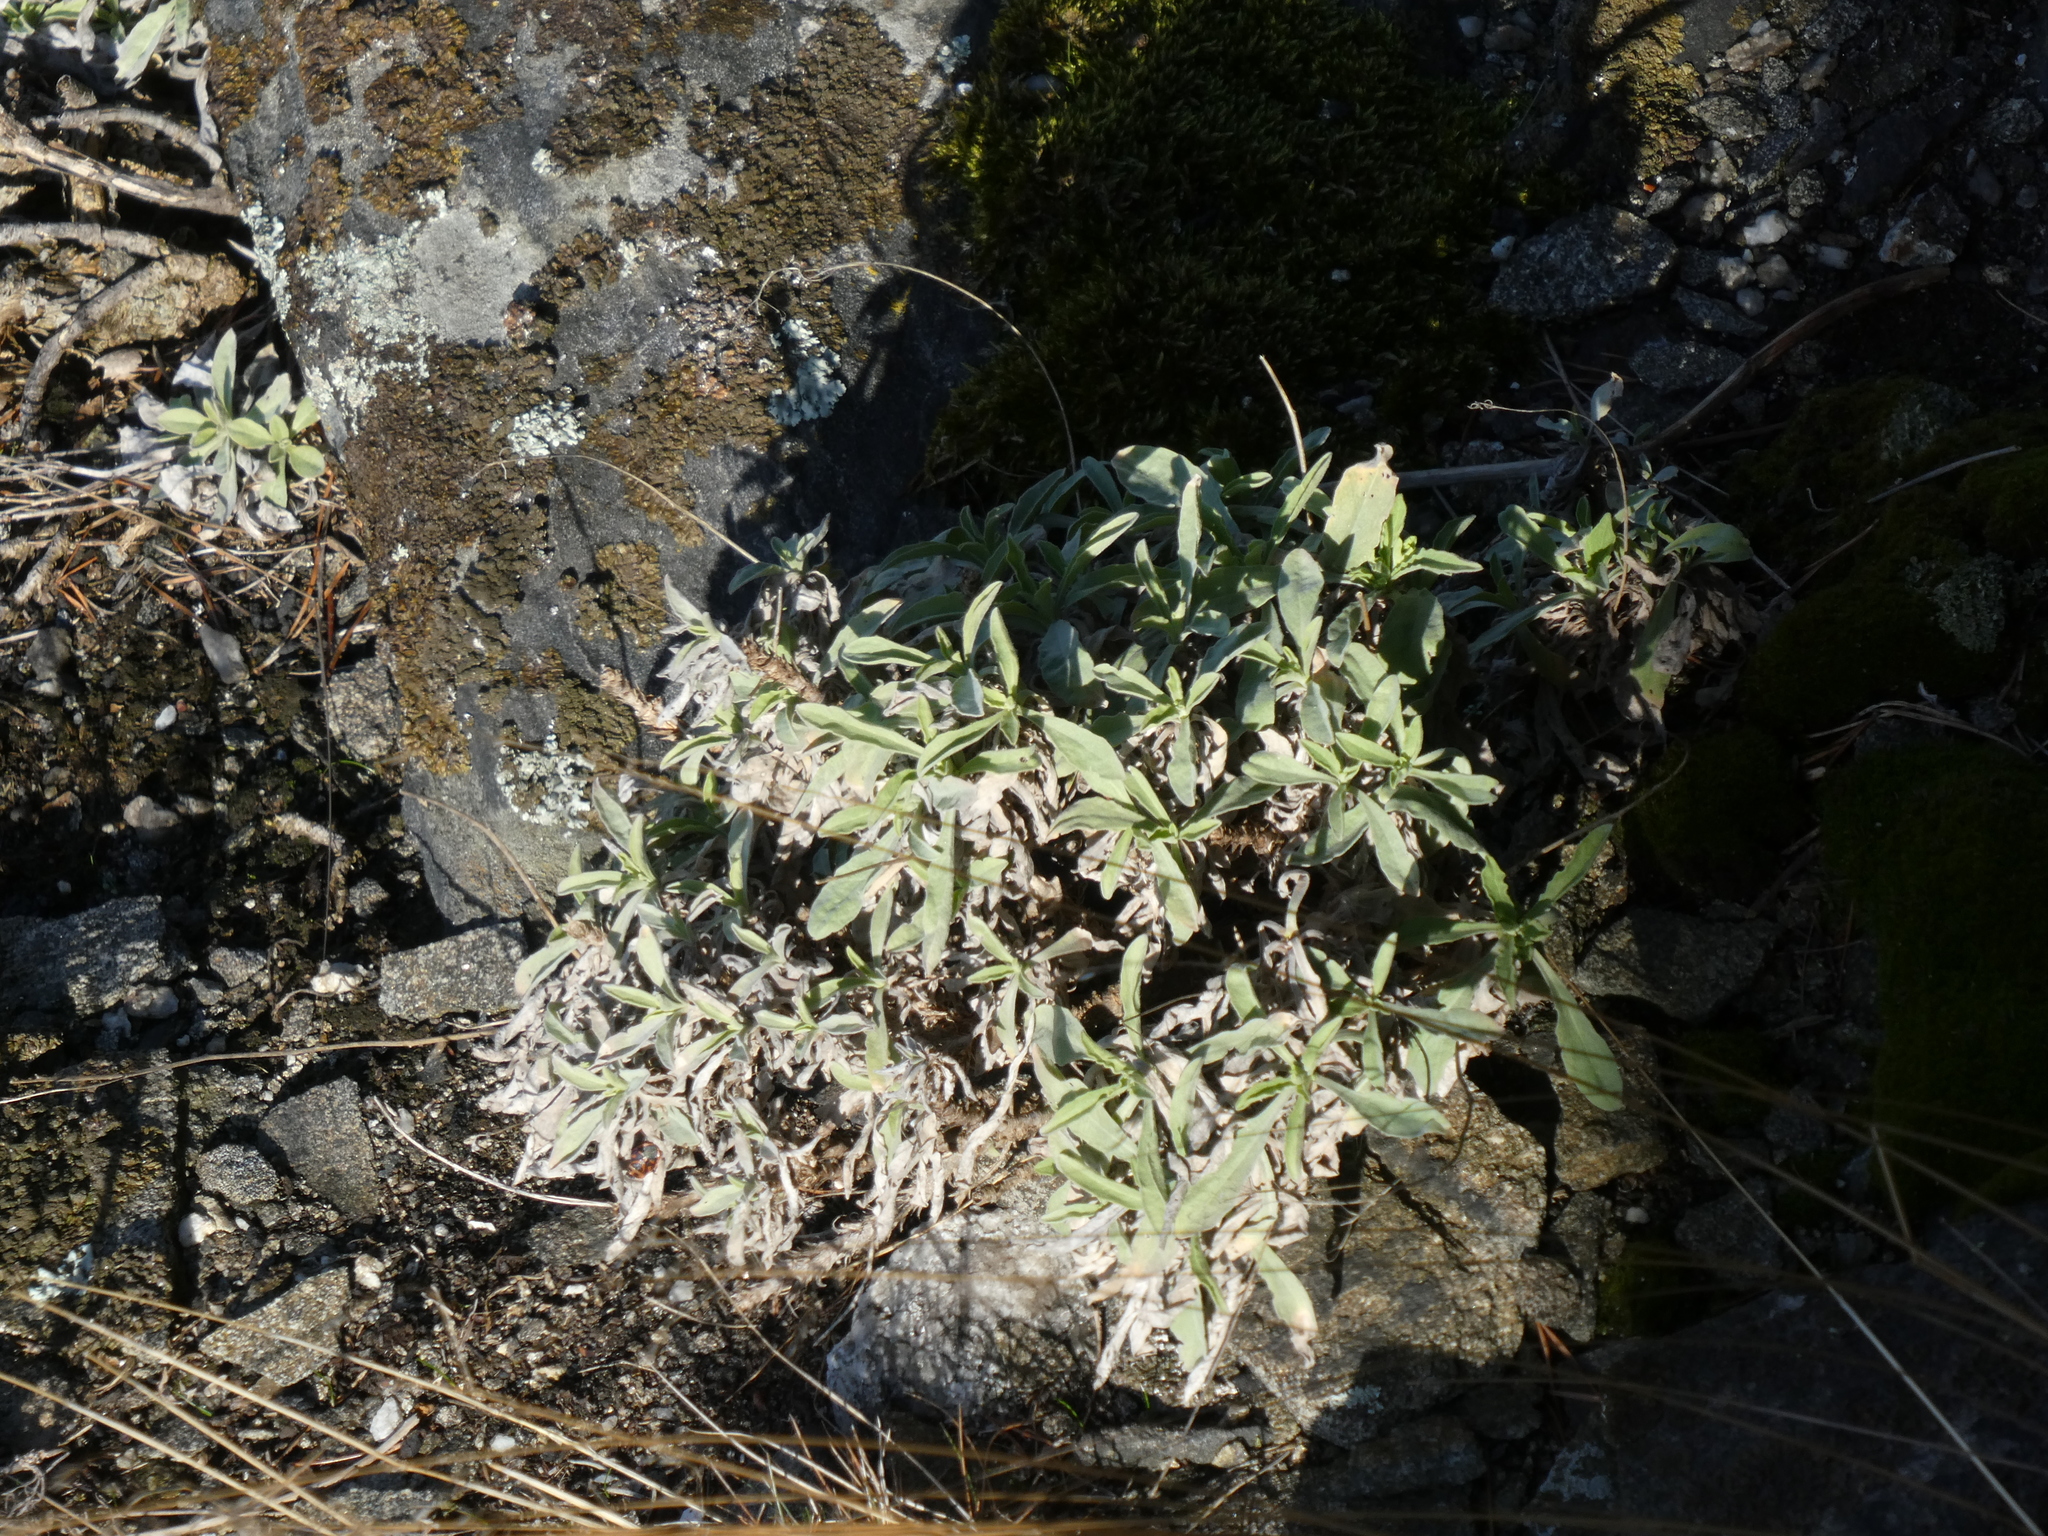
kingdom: Plantae
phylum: Tracheophyta
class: Magnoliopsida
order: Brassicales
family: Brassicaceae
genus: Aurinia
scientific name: Aurinia saxatilis
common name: Golden-tuft alyssum
